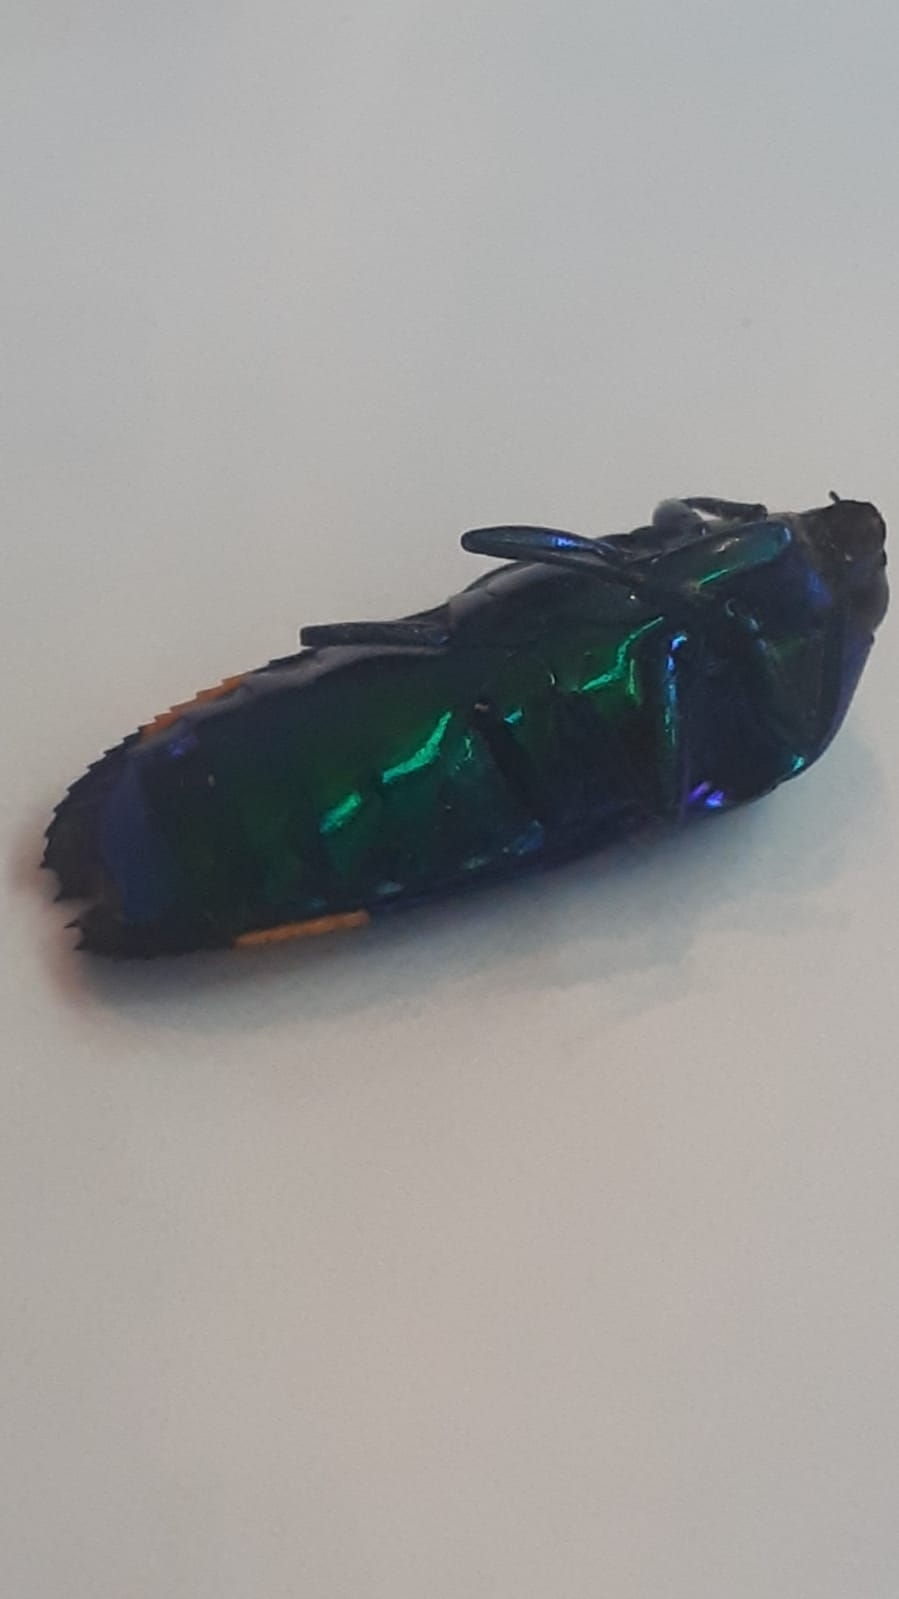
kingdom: Animalia
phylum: Arthropoda
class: Insecta
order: Coleoptera
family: Buprestidae
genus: Conognatha
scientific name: Conognatha amoena
